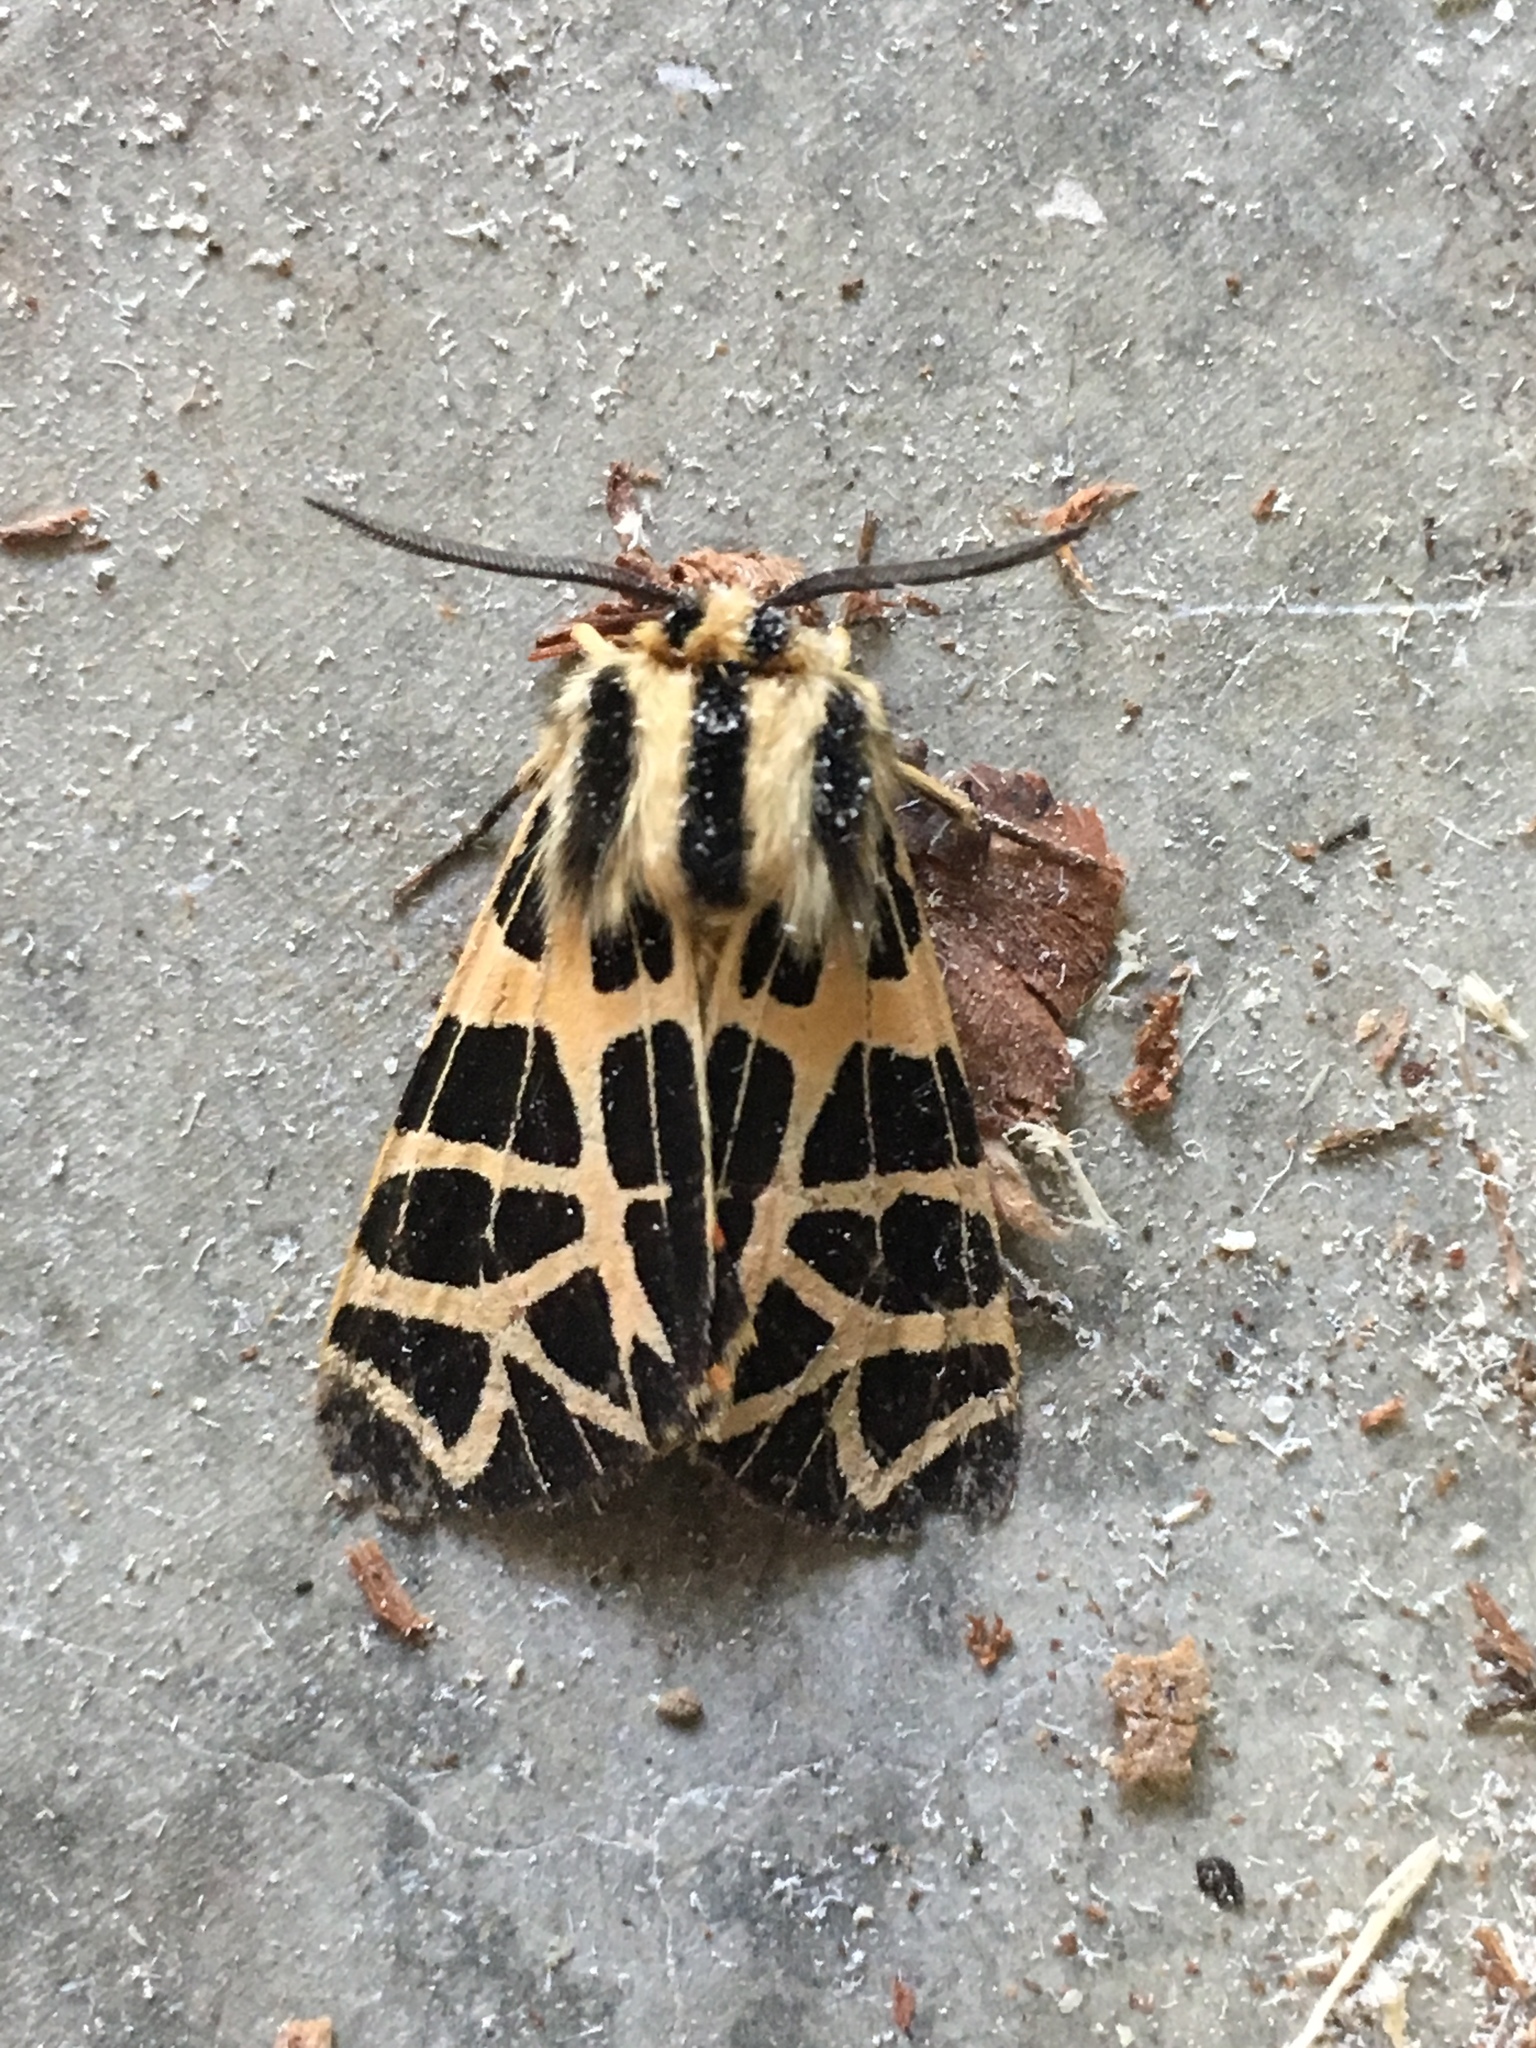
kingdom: Animalia
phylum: Arthropoda
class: Insecta
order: Lepidoptera
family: Erebidae
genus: Apantesis
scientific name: Apantesis
